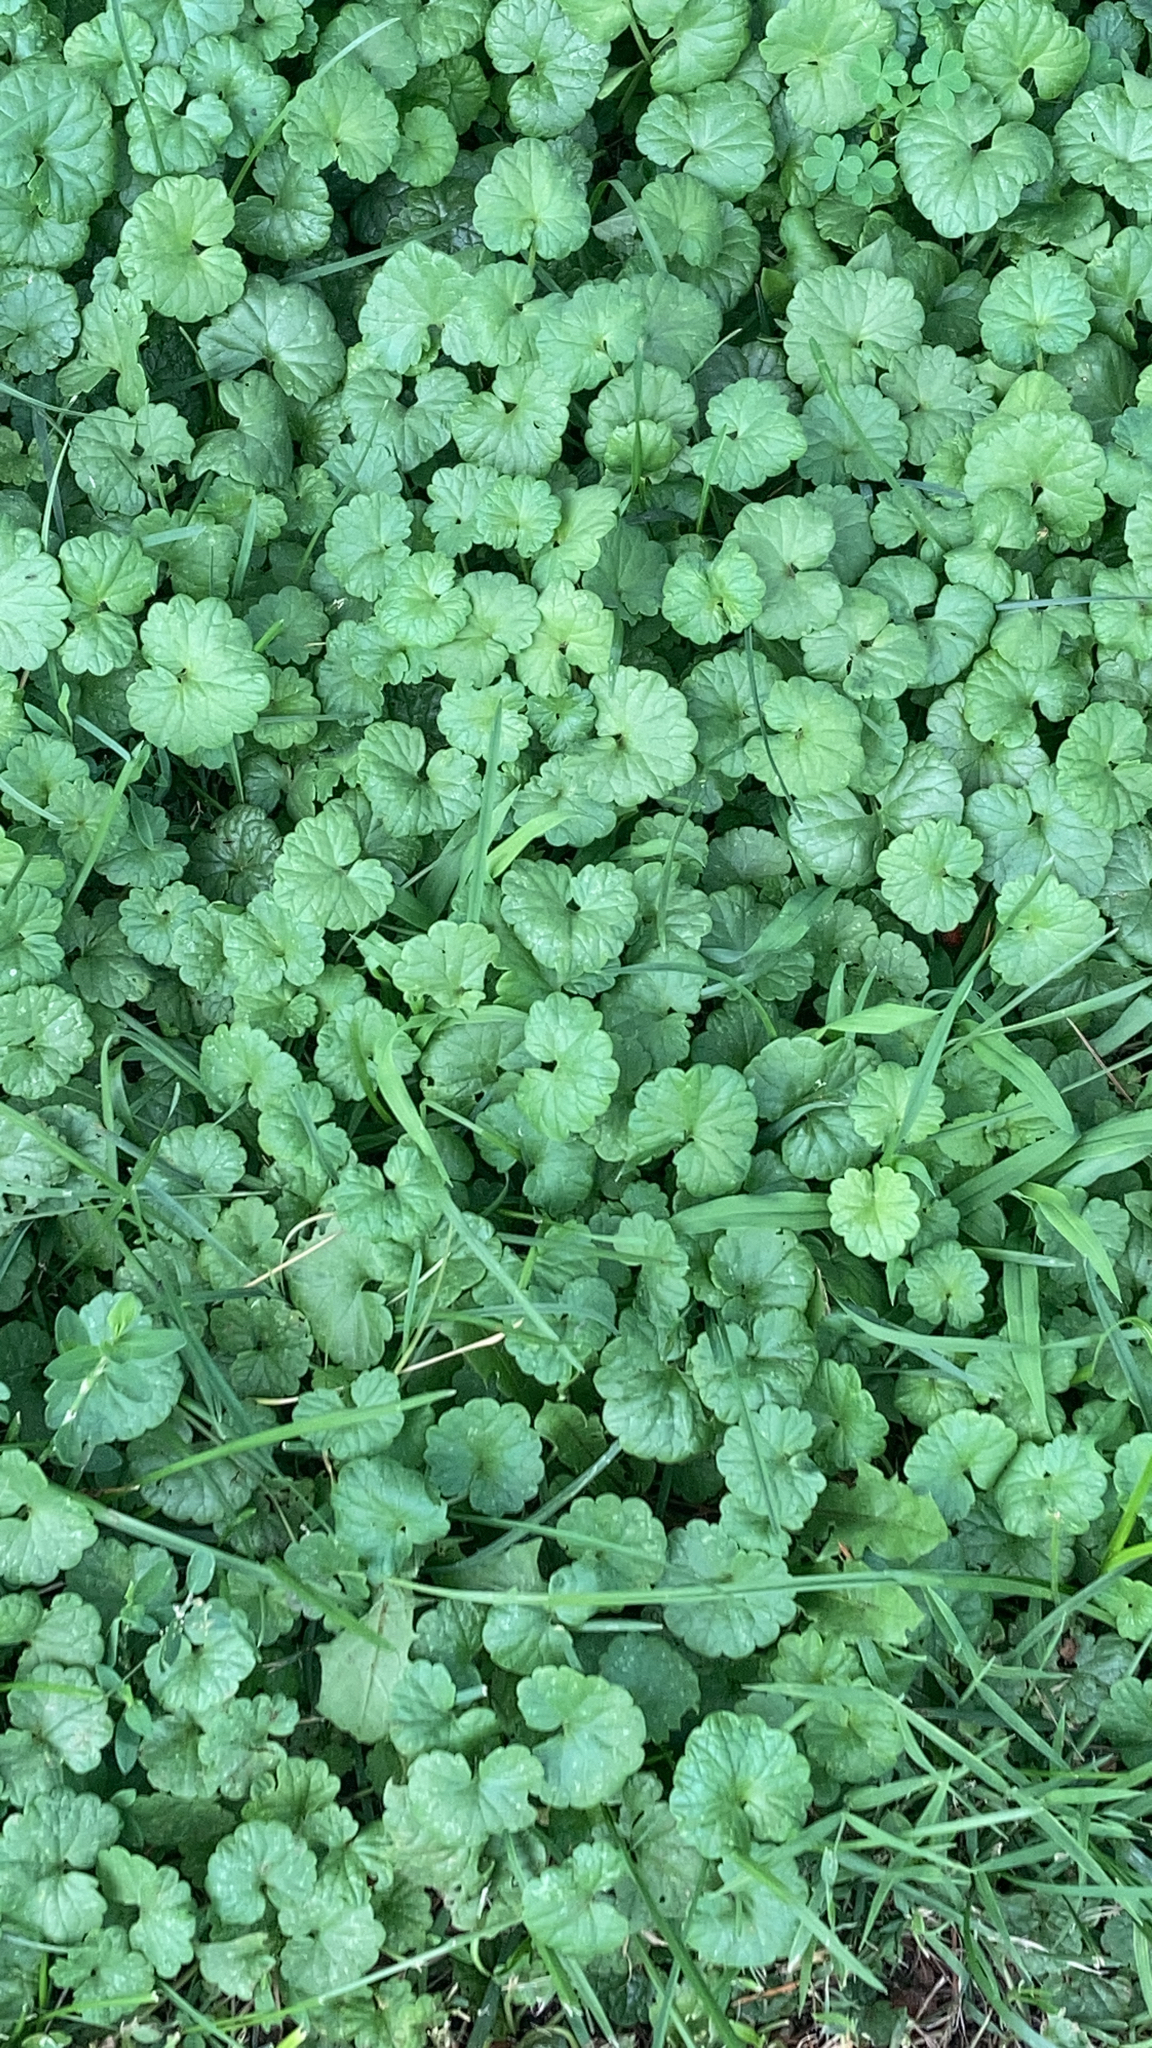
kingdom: Plantae
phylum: Tracheophyta
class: Magnoliopsida
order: Lamiales
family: Lamiaceae
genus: Glechoma
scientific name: Glechoma hederacea
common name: Ground ivy
